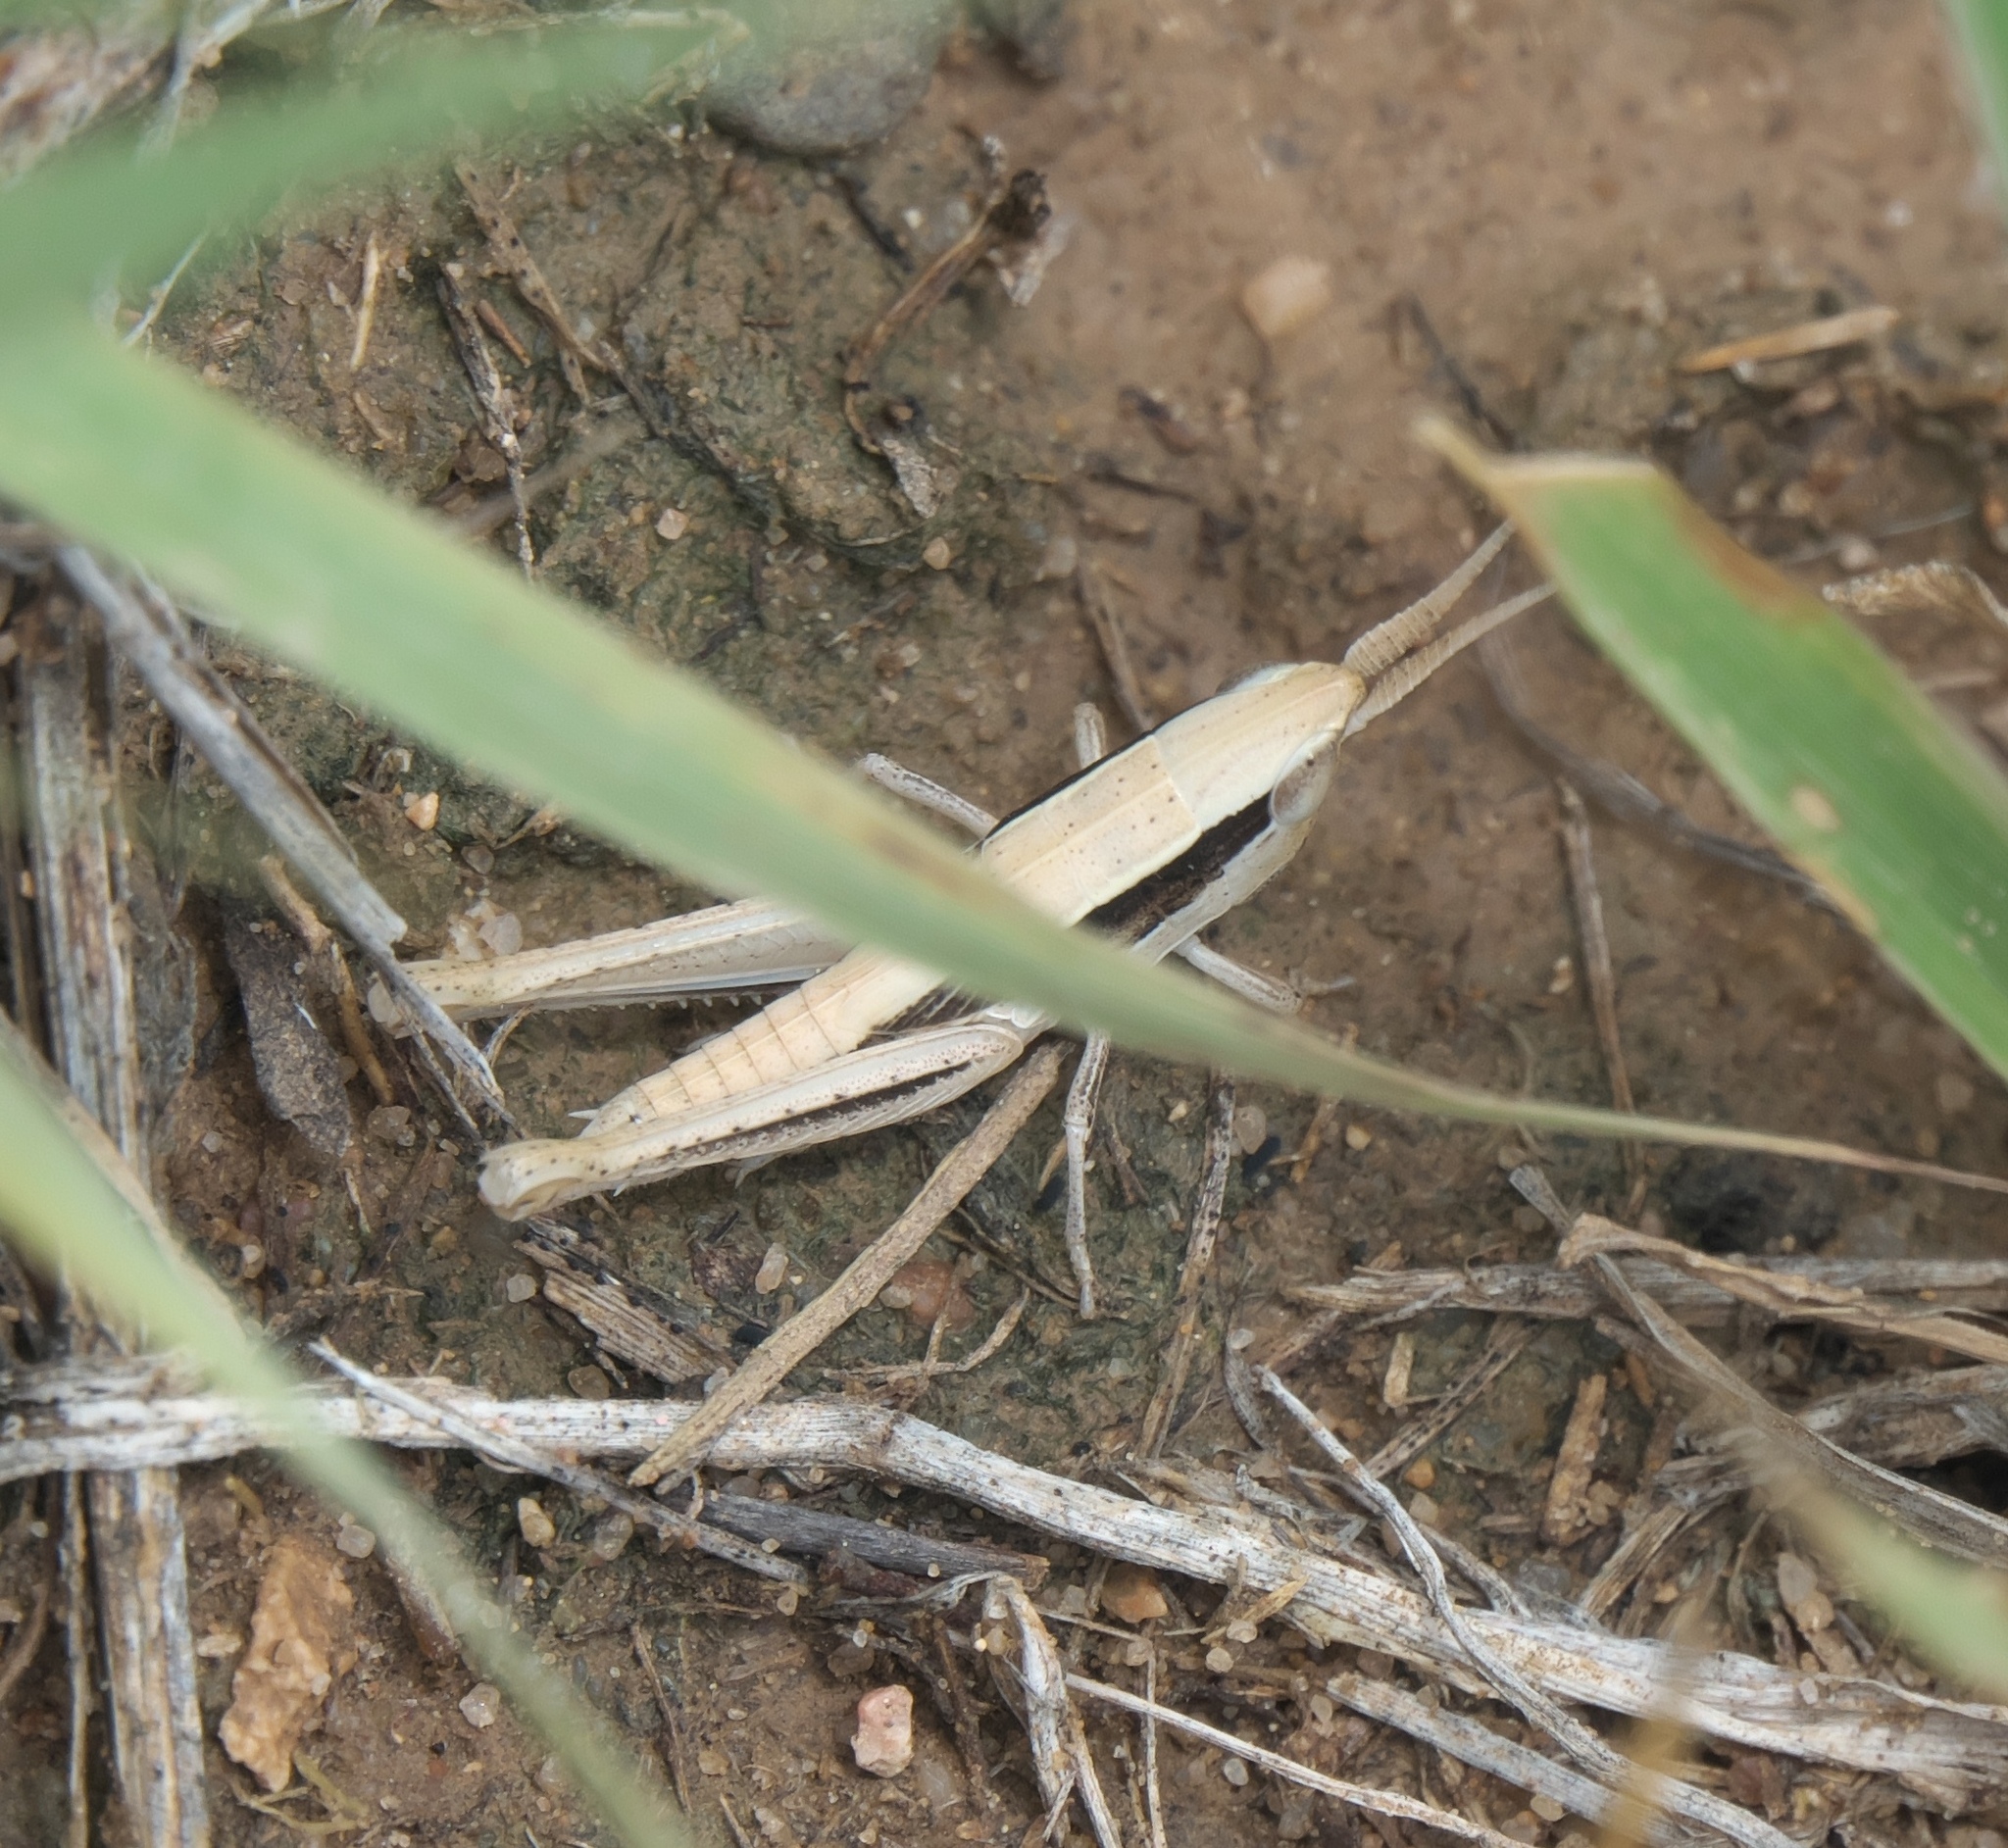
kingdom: Animalia
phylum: Arthropoda
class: Insecta
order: Orthoptera
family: Acrididae
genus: Opeia
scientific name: Opeia obscura
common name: Obscure grasshopper
